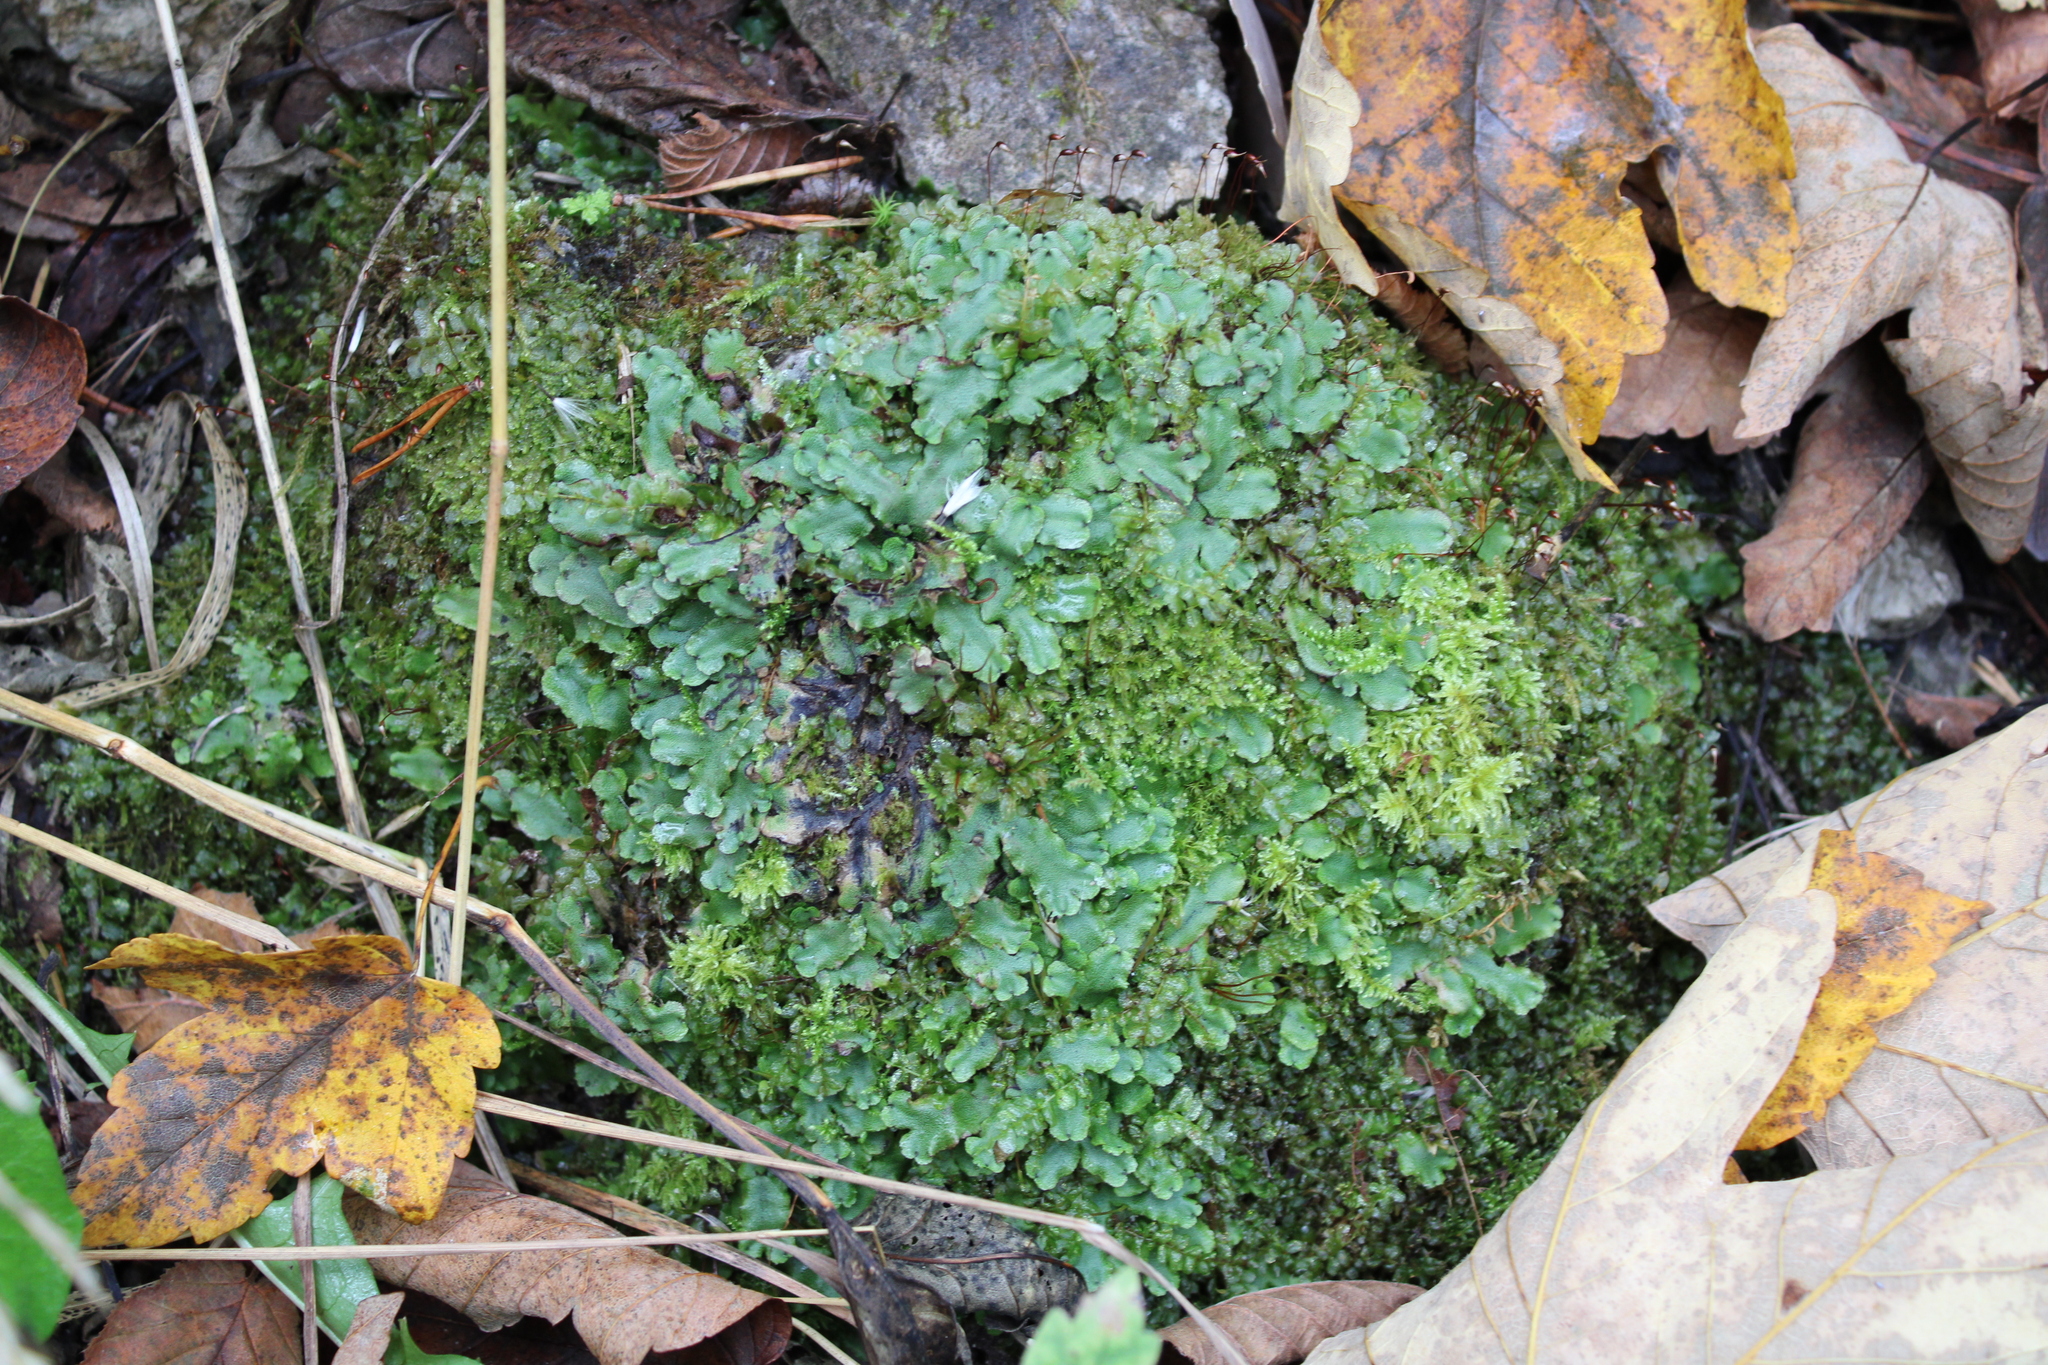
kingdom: Plantae
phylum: Marchantiophyta
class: Marchantiopsida
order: Marchantiales
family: Marchantiaceae
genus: Marchantia
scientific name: Marchantia quadrata
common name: Narrow mushroom-headed liverwort
